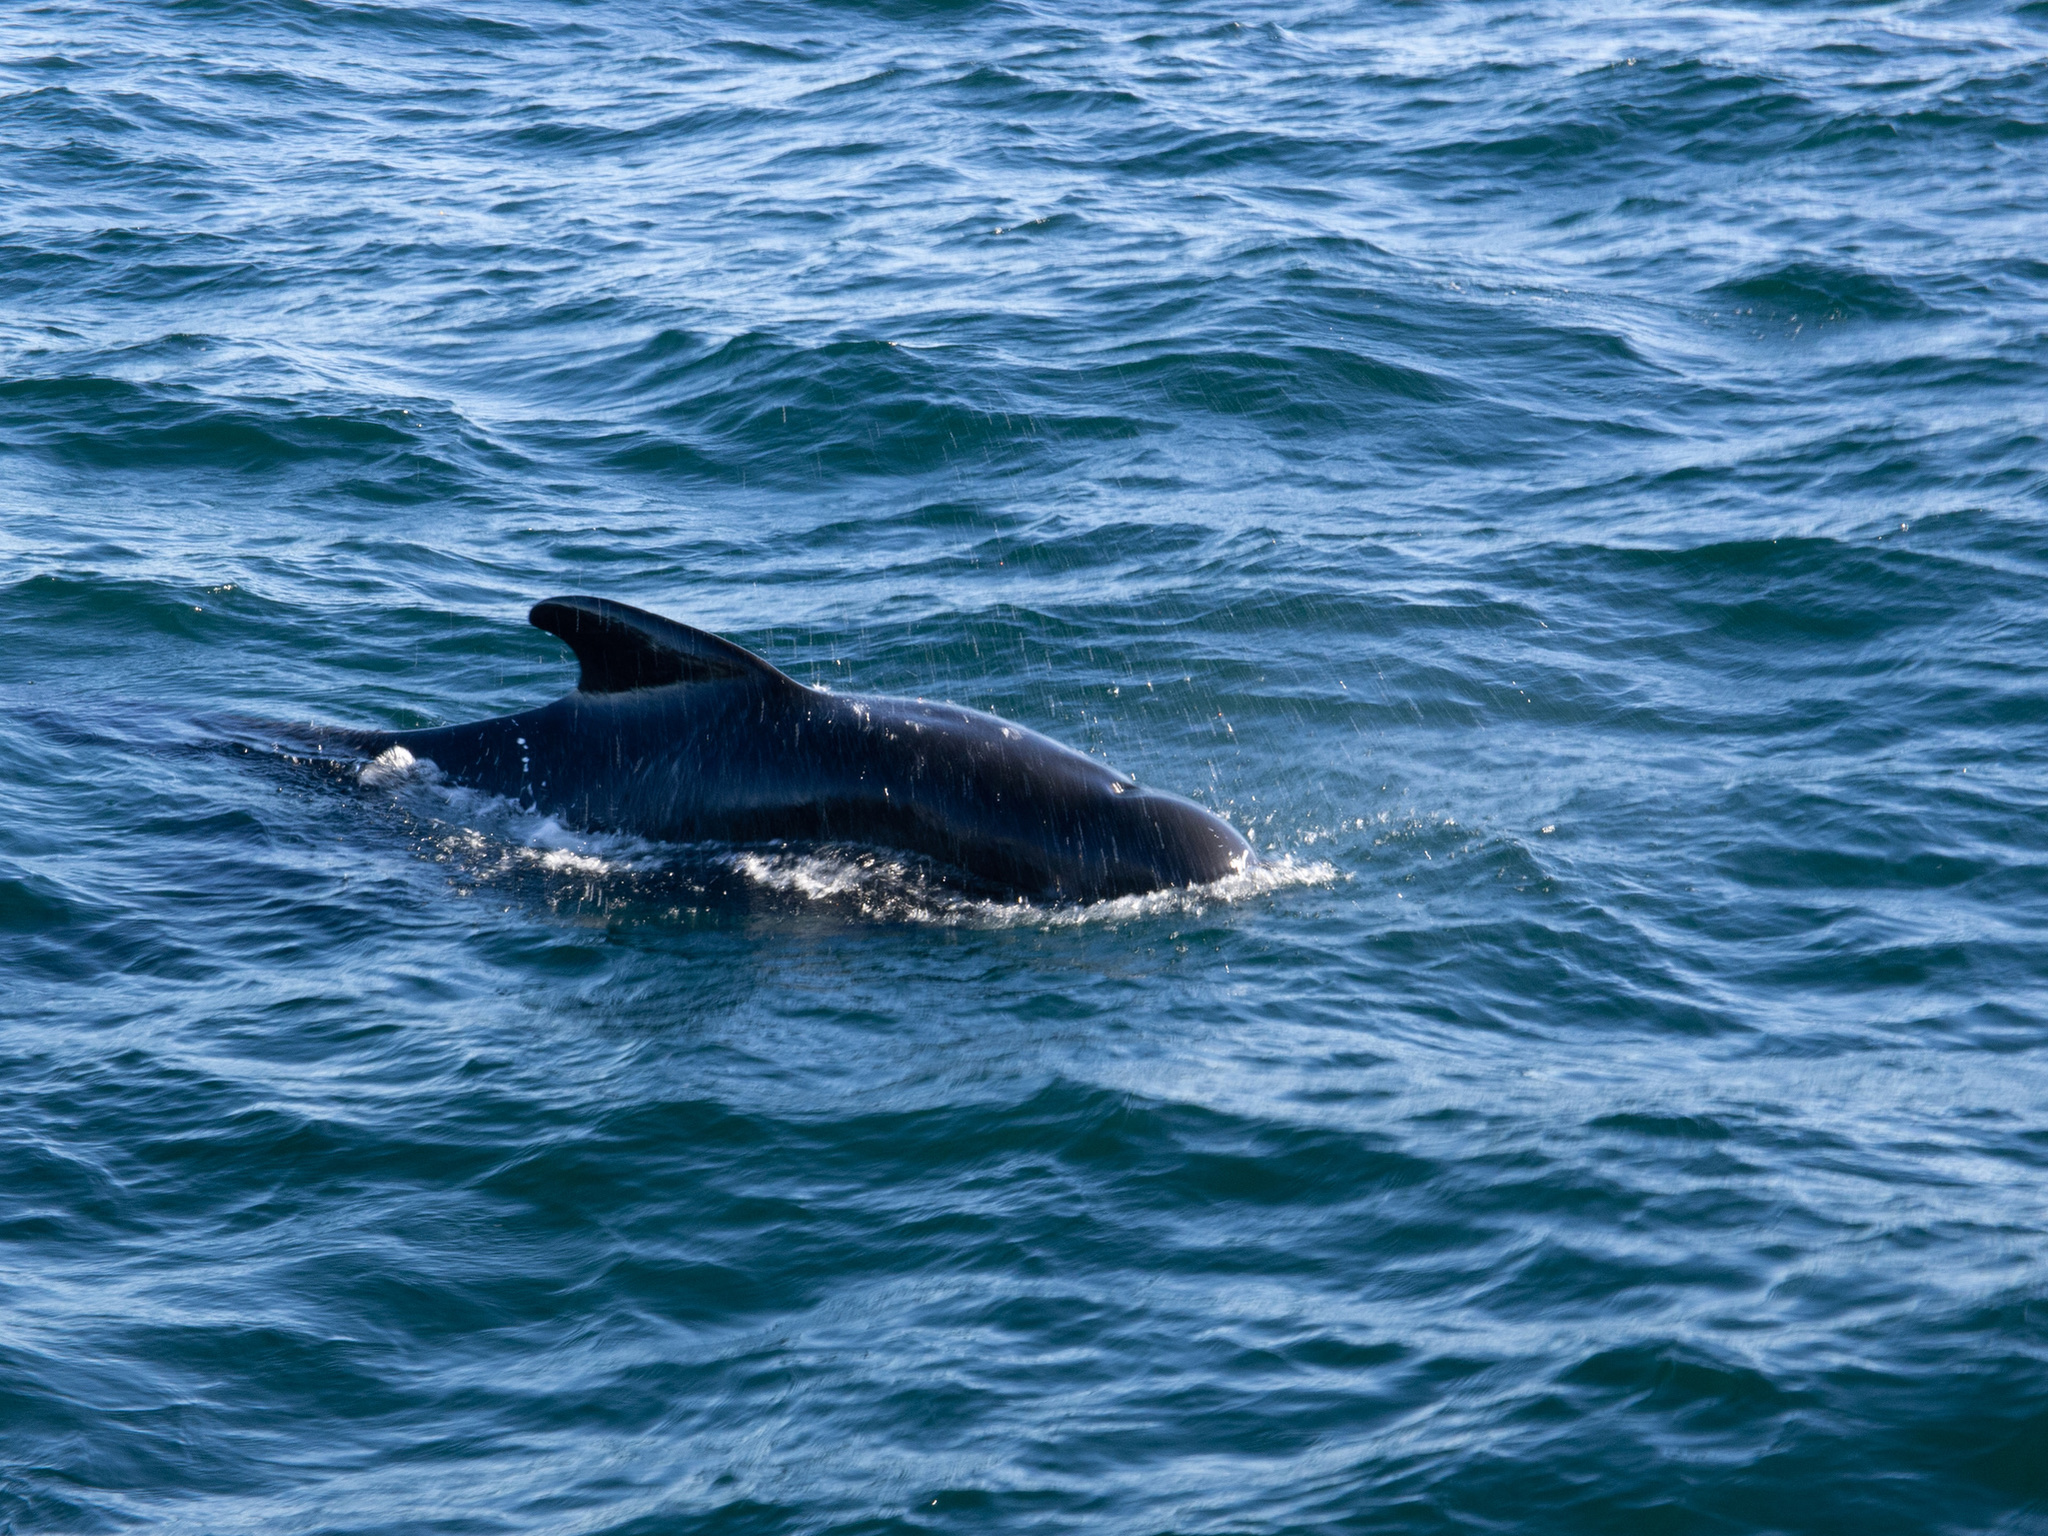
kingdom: Animalia
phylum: Chordata
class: Mammalia
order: Cetacea
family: Delphinidae
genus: Globicephala
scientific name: Globicephala melas
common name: Long-finned pilot whale
